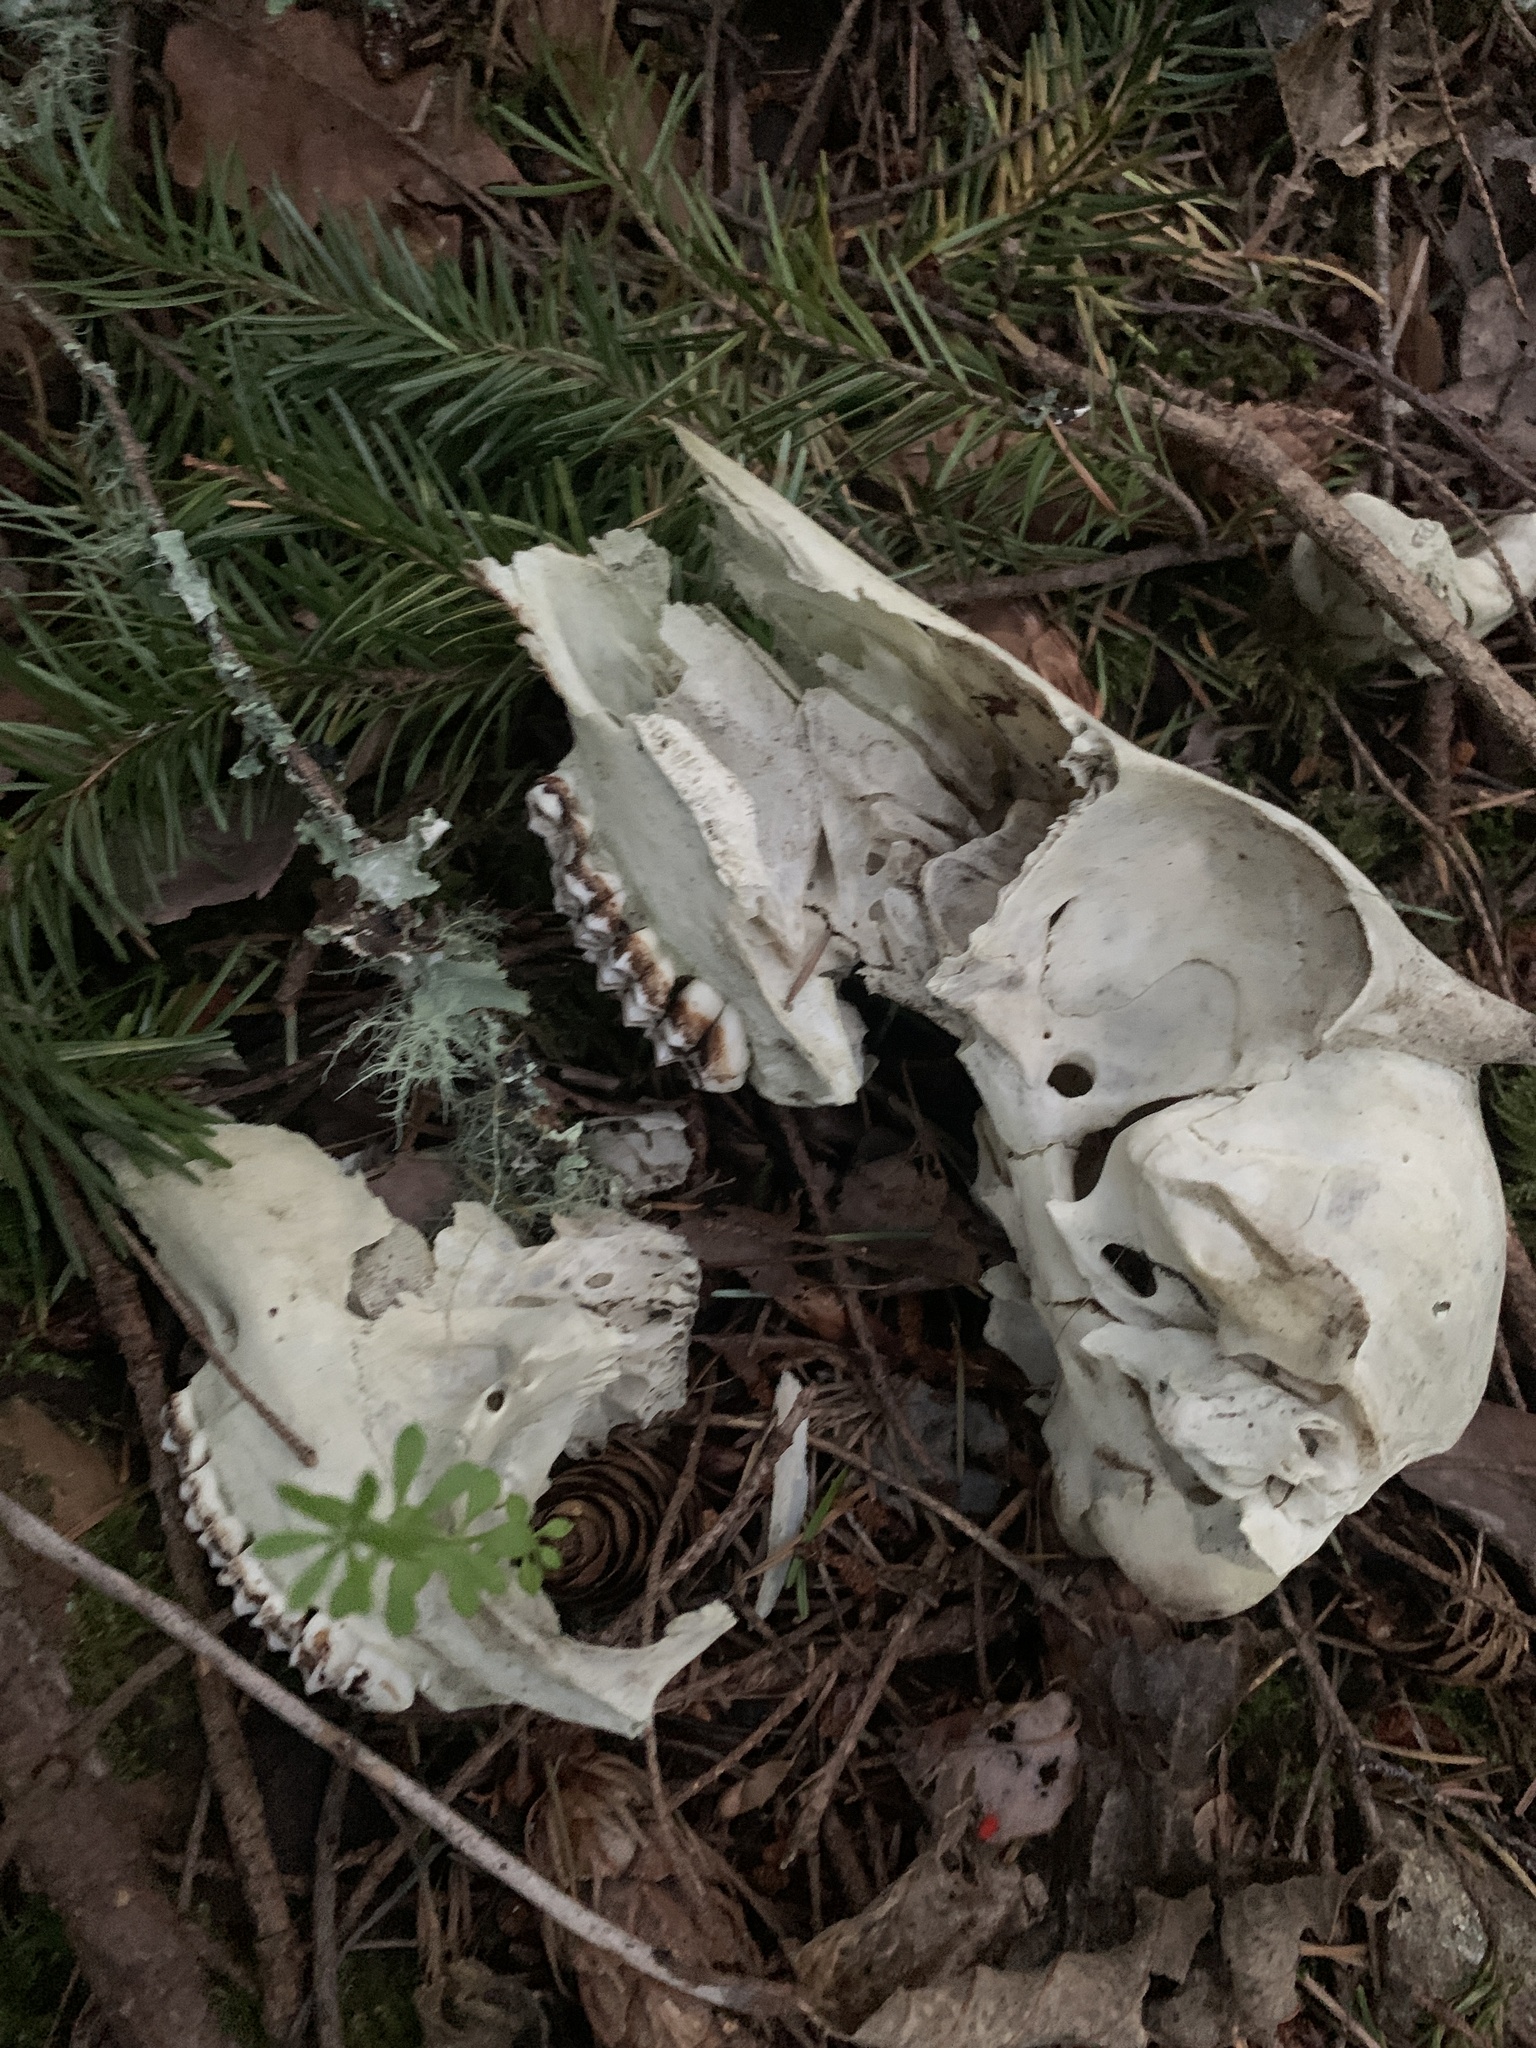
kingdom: Animalia
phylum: Chordata
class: Mammalia
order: Artiodactyla
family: Cervidae
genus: Odocoileus
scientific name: Odocoileus hemionus
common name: Mule deer
